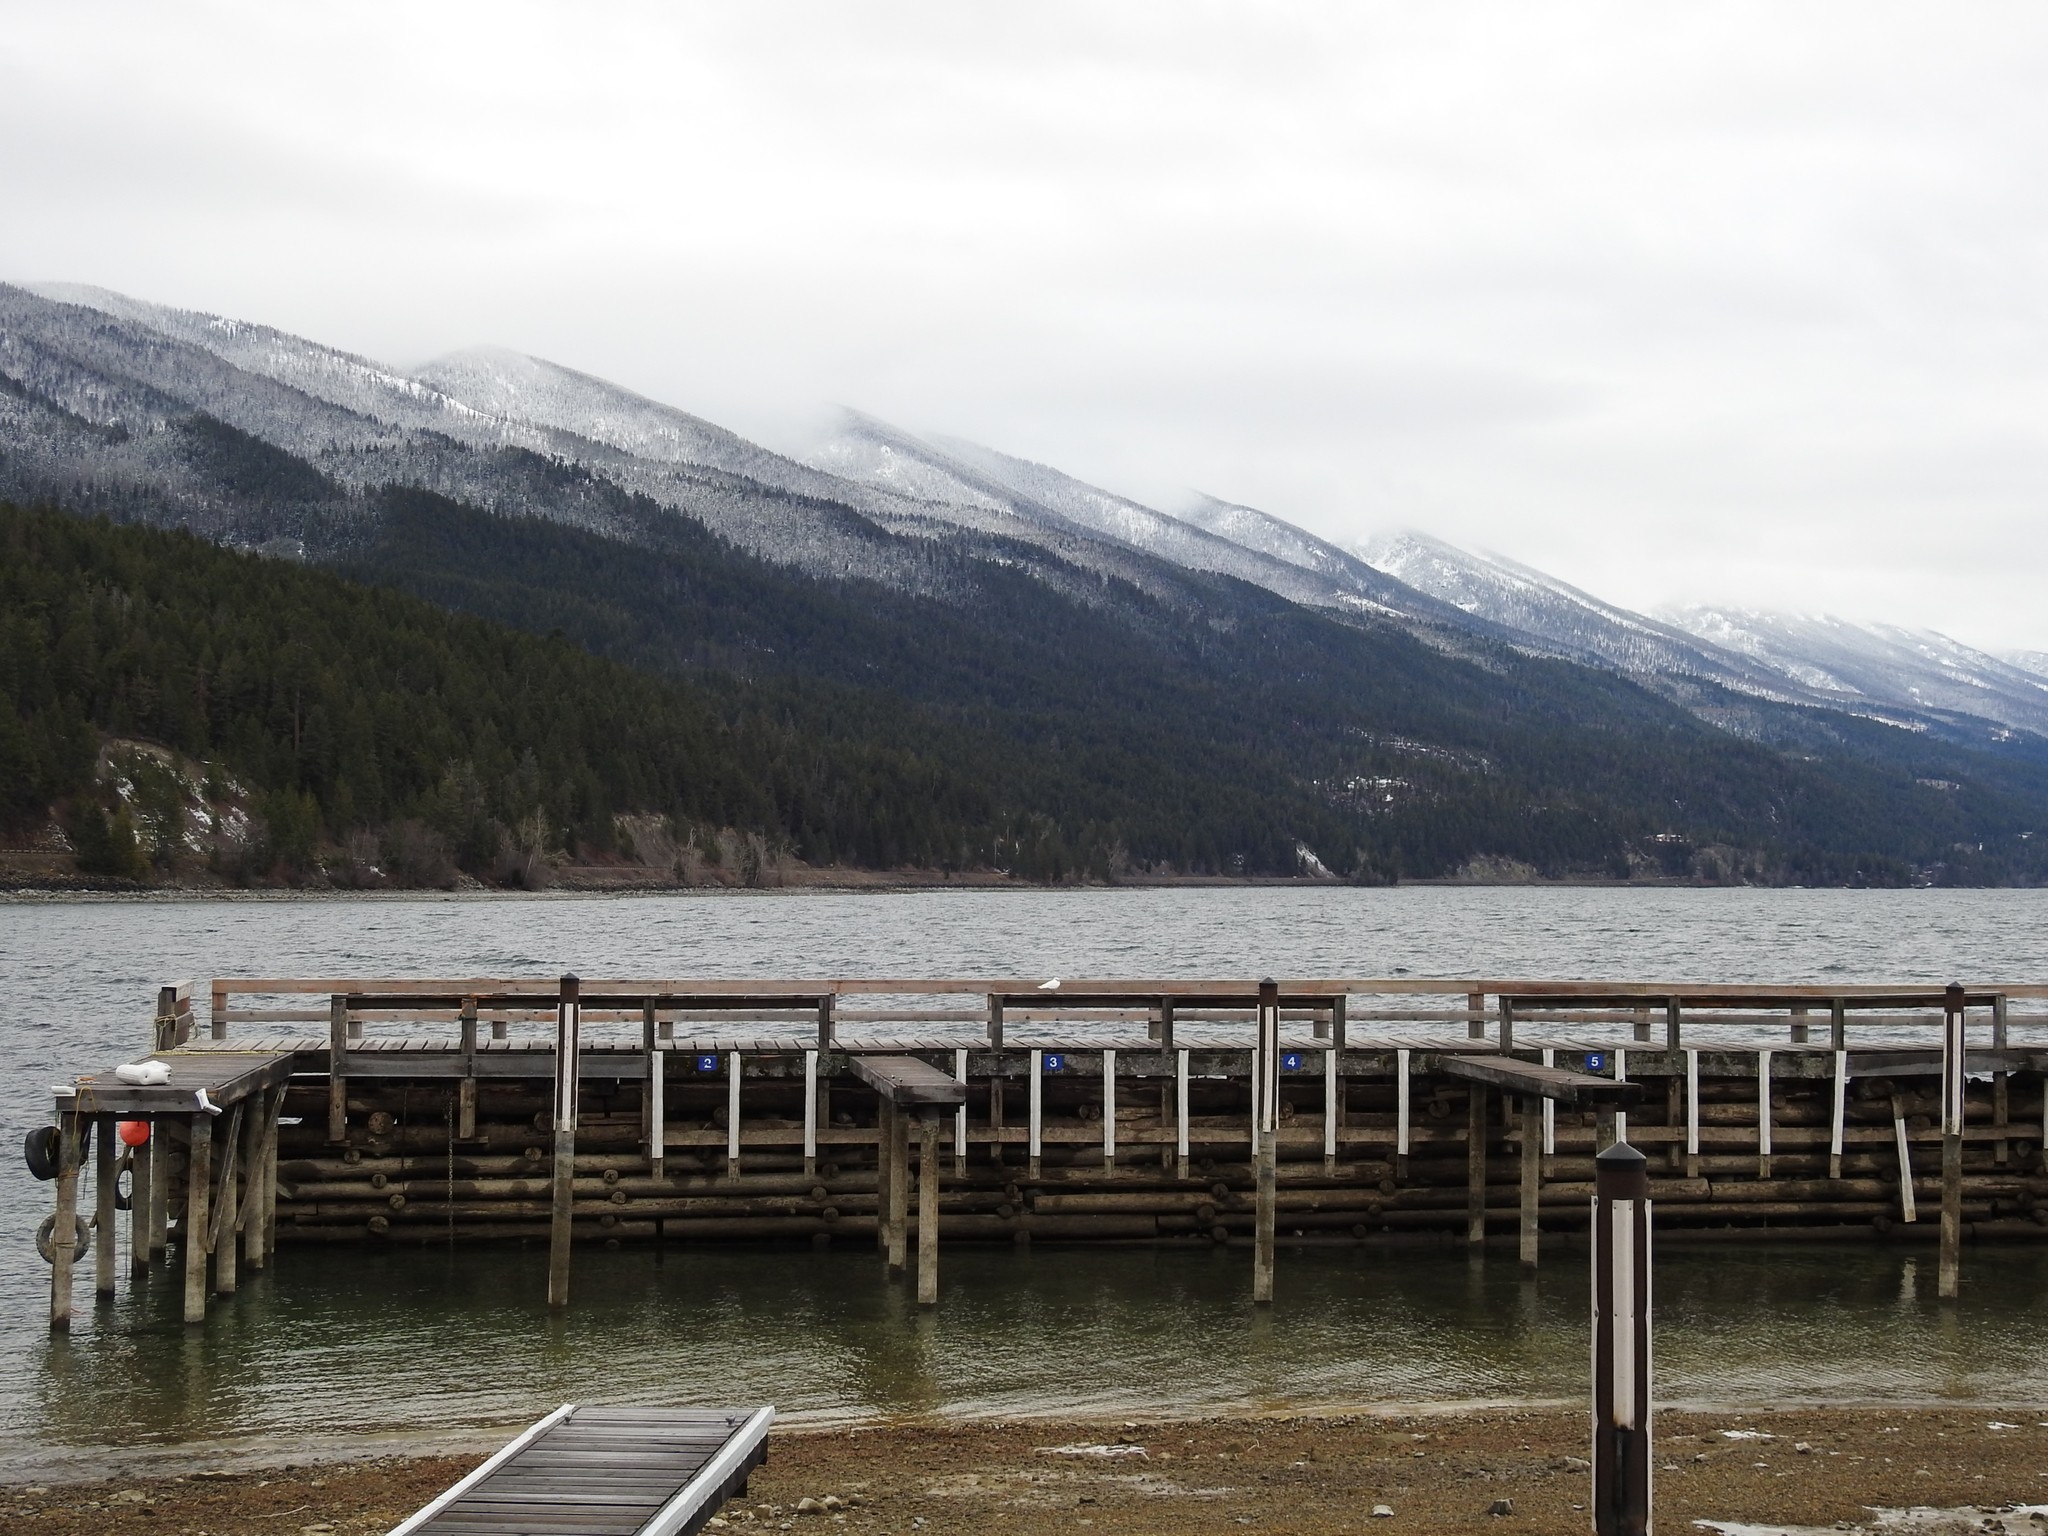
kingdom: Animalia
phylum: Chordata
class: Aves
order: Charadriiformes
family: Laridae
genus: Pagophila
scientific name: Pagophila eburnea
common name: Ivory gull
